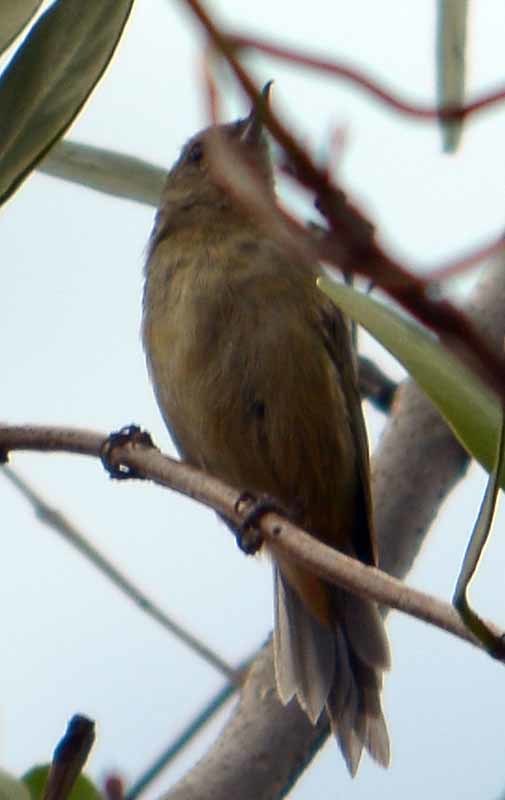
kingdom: Animalia
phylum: Chordata
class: Aves
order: Passeriformes
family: Thraupidae
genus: Diglossa
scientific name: Diglossa baritula
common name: Cinnamon-bellied flowerpiercer
